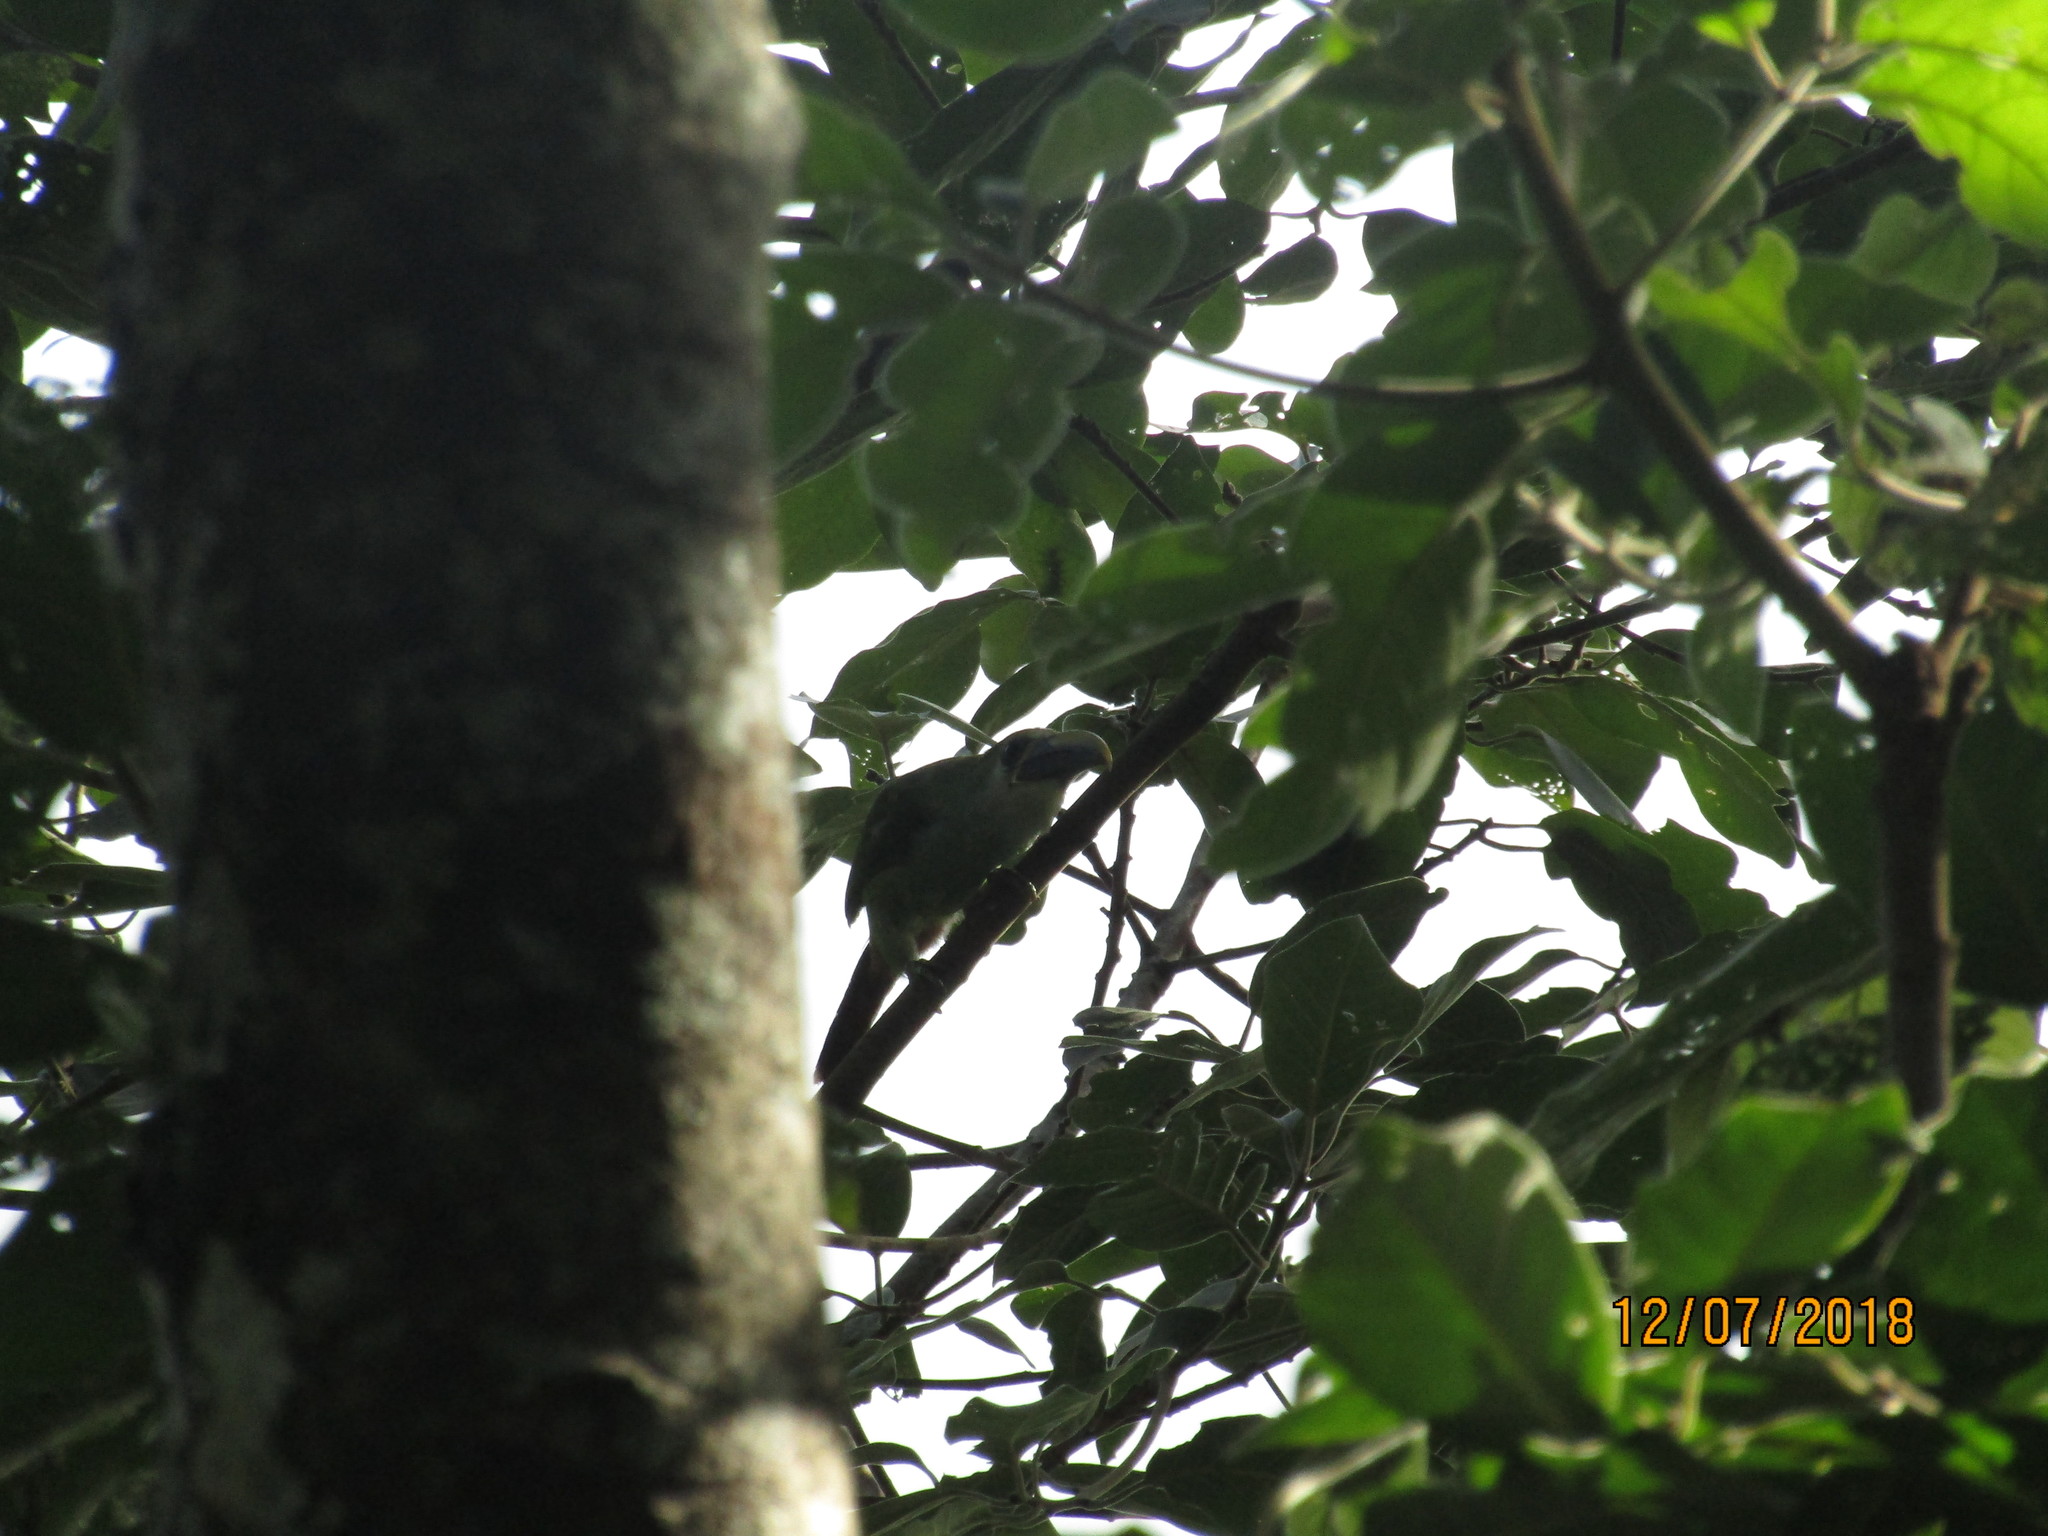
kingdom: Animalia
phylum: Chordata
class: Aves
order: Piciformes
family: Ramphastidae
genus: Aulacorhynchus
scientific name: Aulacorhynchus prasinus
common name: Emerald toucanet
